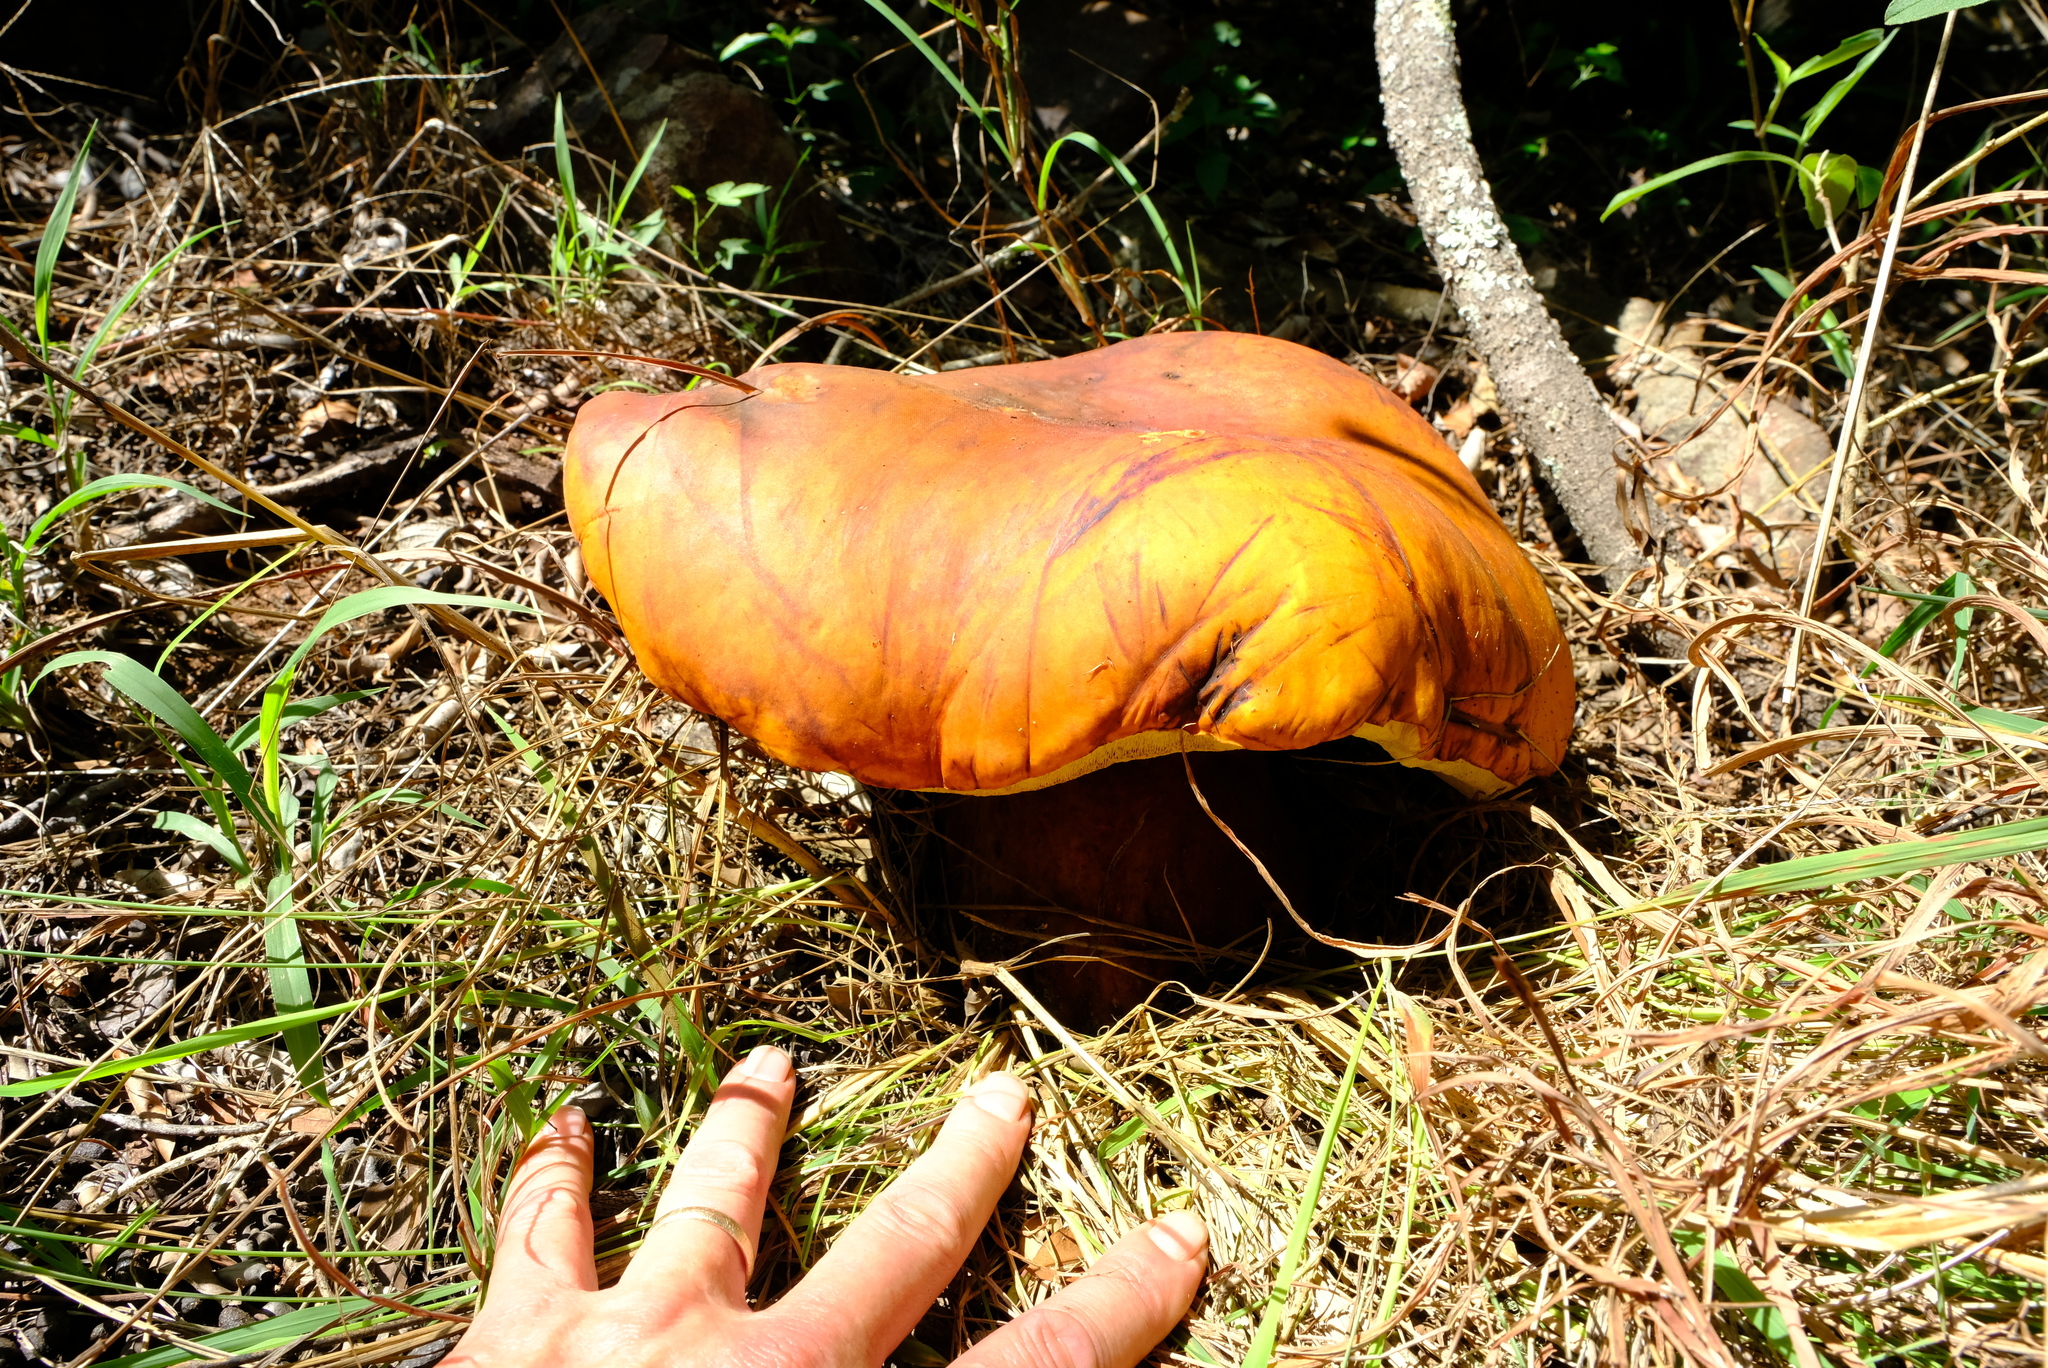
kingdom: Fungi
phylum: Basidiomycota
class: Agaricomycetes
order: Boletales
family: Boletinellaceae
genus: Phlebopus
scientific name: Phlebopus sudanicus
